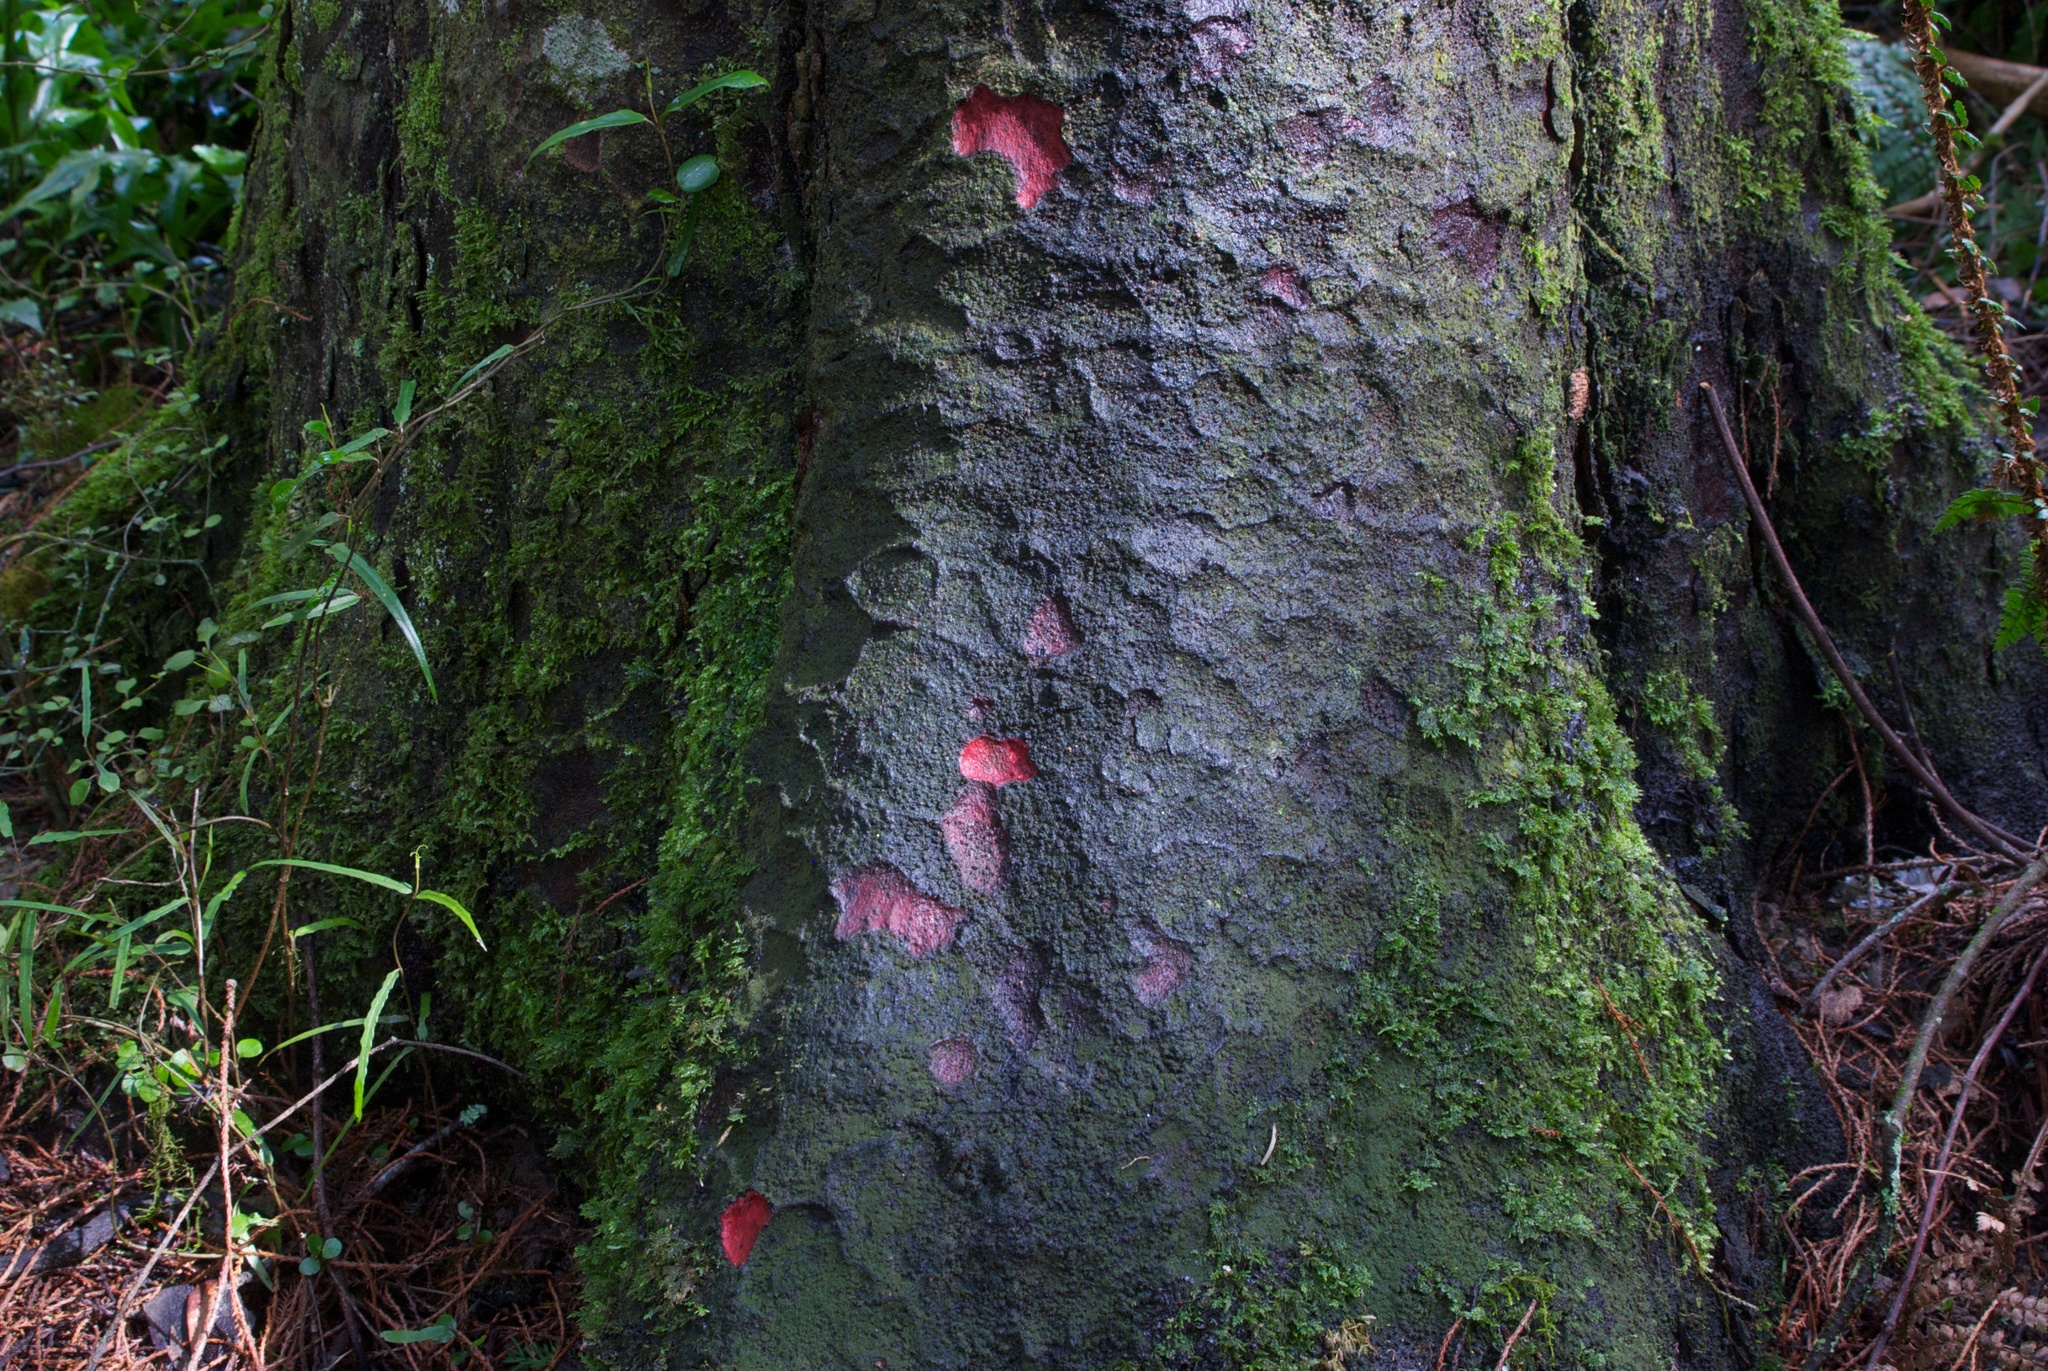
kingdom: Plantae
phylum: Tracheophyta
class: Pinopsida
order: Pinales
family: Podocarpaceae
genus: Prumnopitys
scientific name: Prumnopitys taxifolia
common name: Matai
